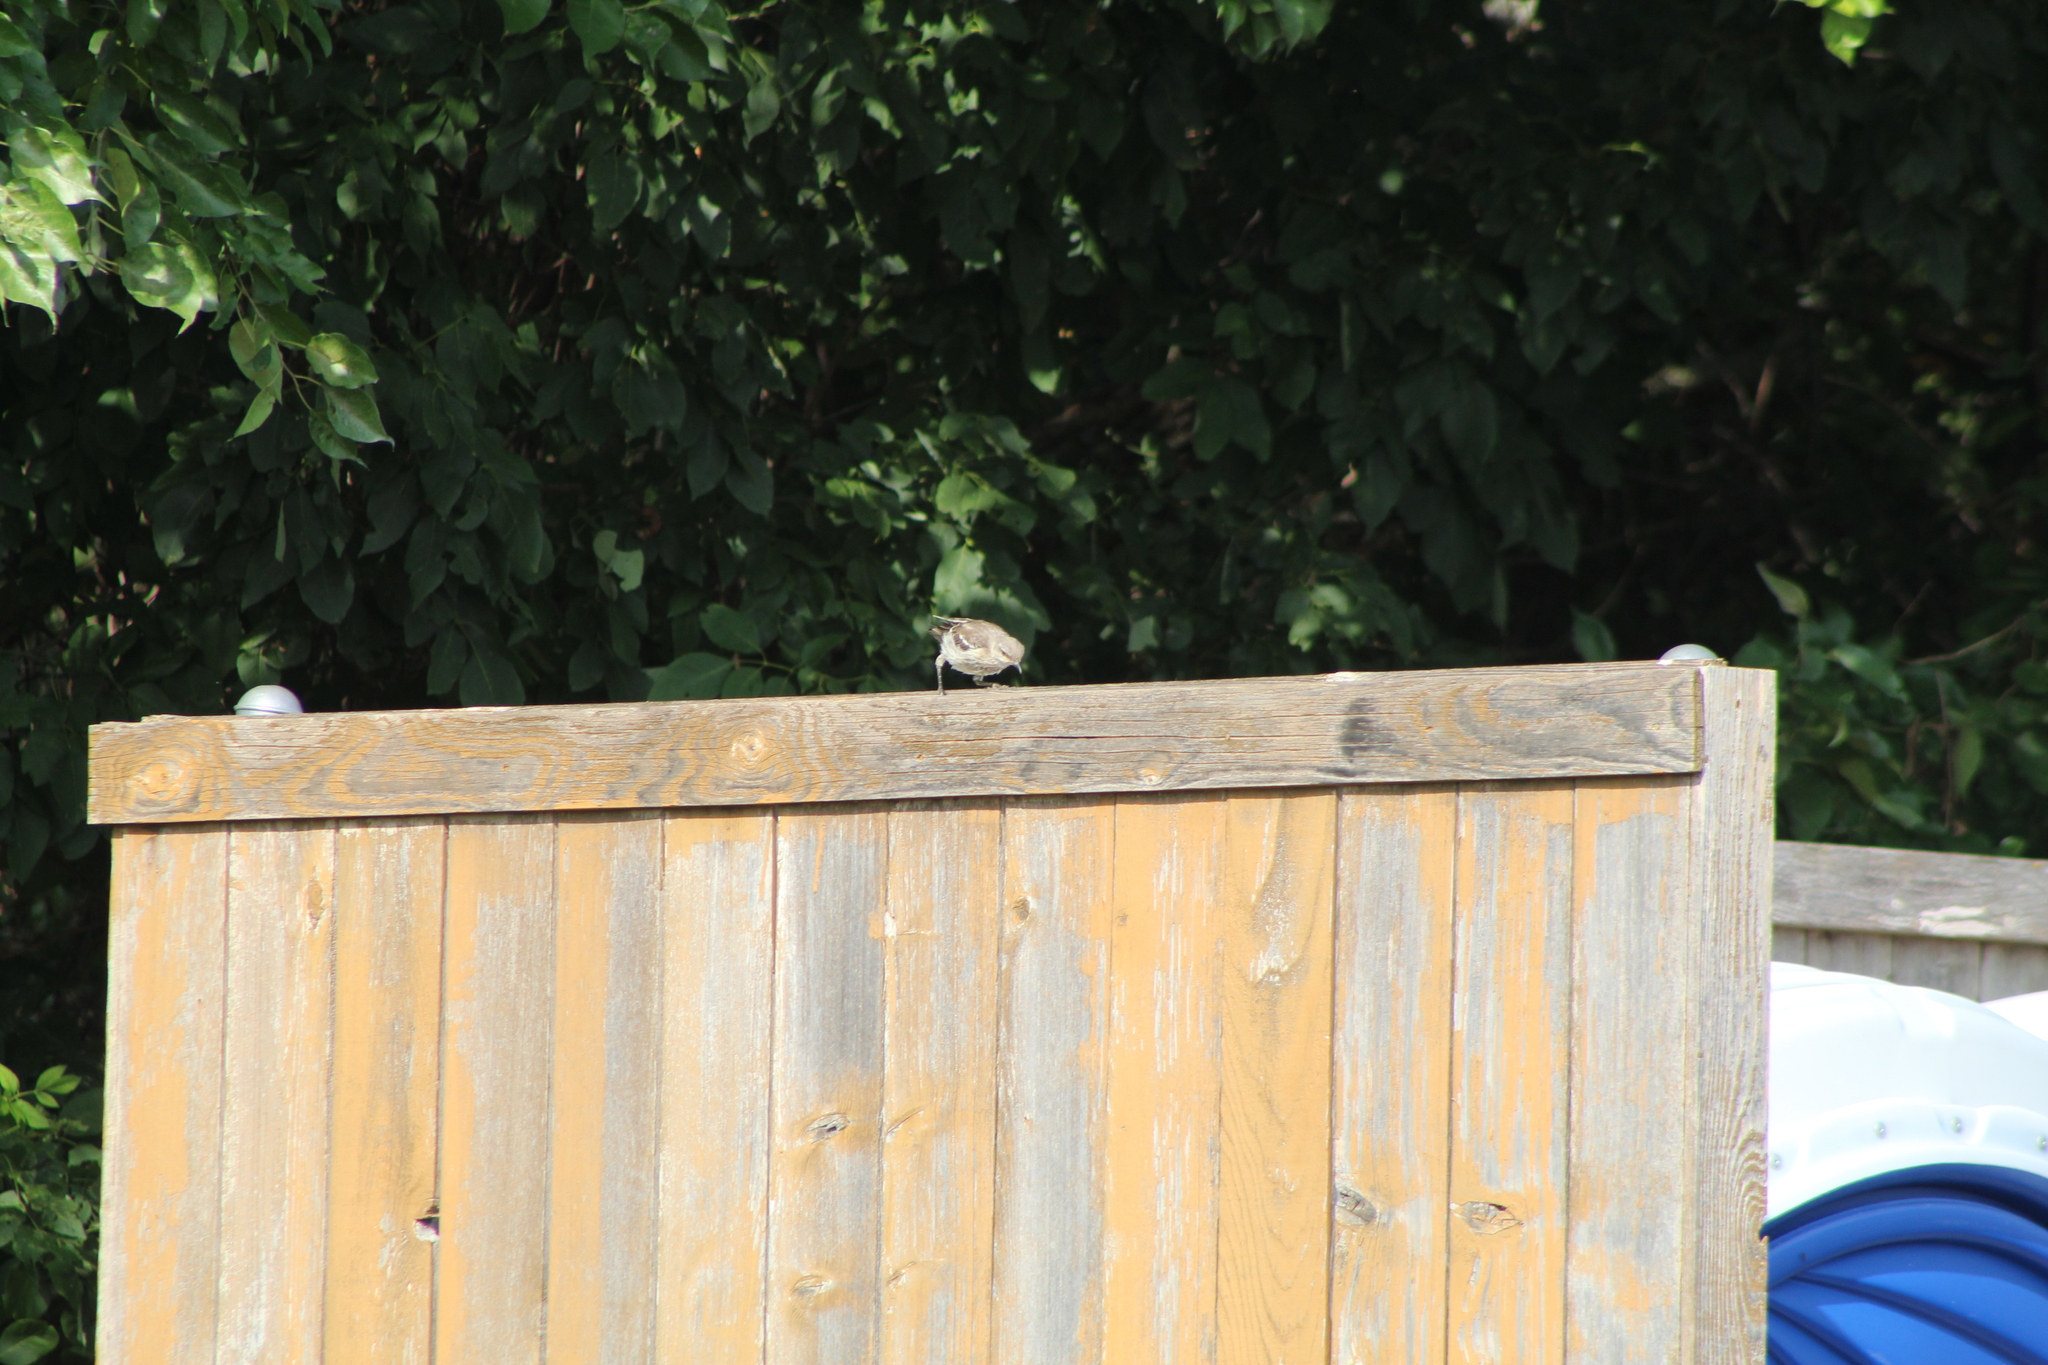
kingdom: Animalia
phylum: Chordata
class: Aves
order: Passeriformes
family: Mimidae
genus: Mimus
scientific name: Mimus polyglottos
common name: Northern mockingbird
